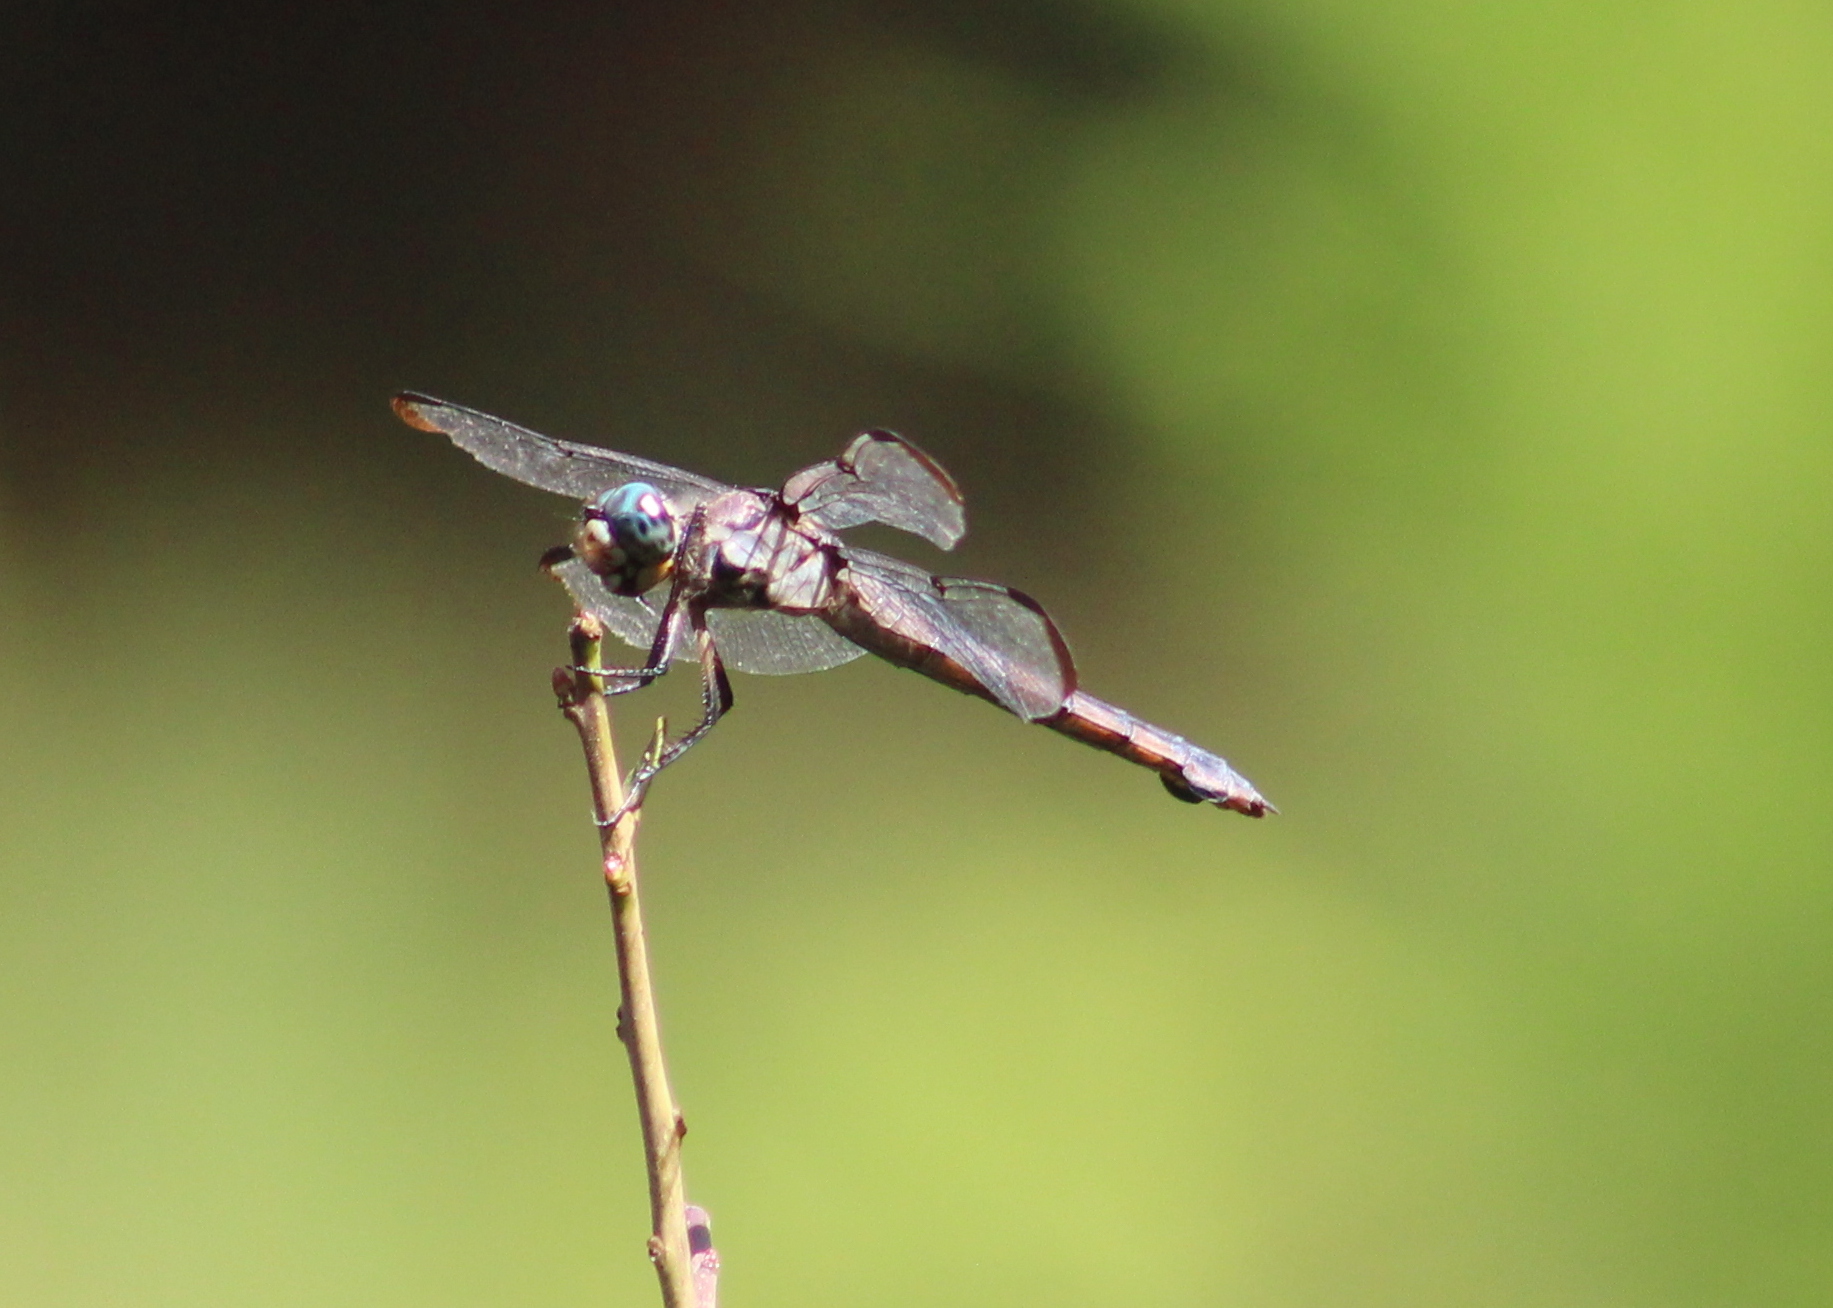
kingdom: Animalia
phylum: Arthropoda
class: Insecta
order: Odonata
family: Libellulidae
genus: Libellula
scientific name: Libellula vibrans
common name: Great blue skimmer
